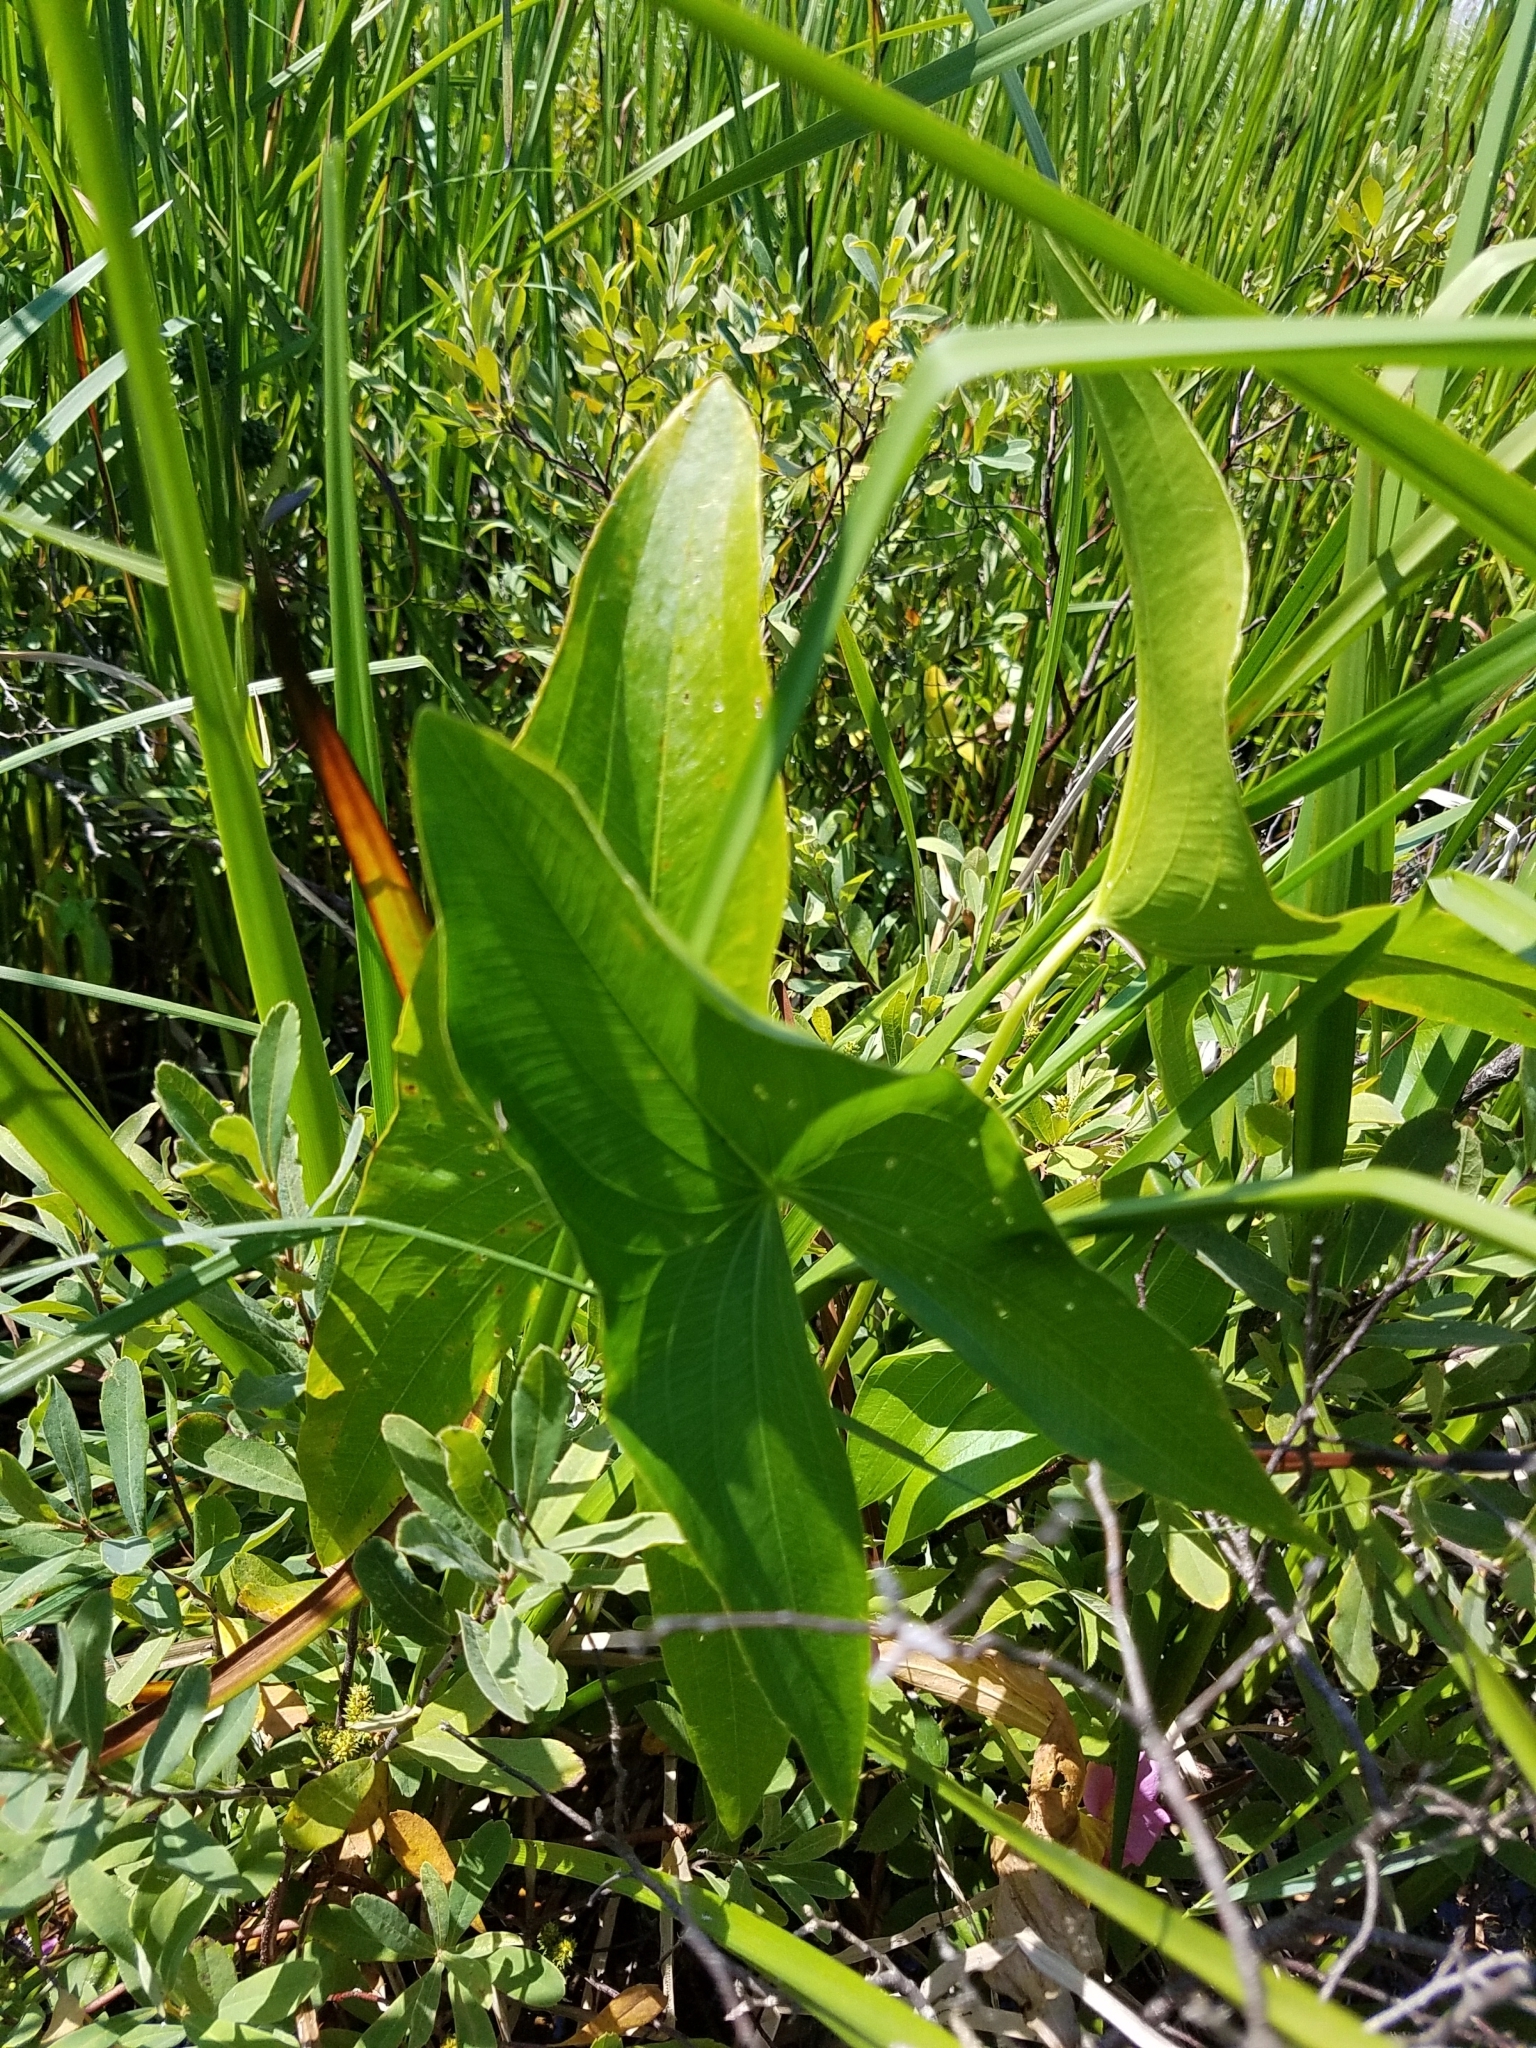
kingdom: Plantae
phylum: Tracheophyta
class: Liliopsida
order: Alismatales
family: Alismataceae
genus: Sagittaria
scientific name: Sagittaria latifolia
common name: Duck-potato
